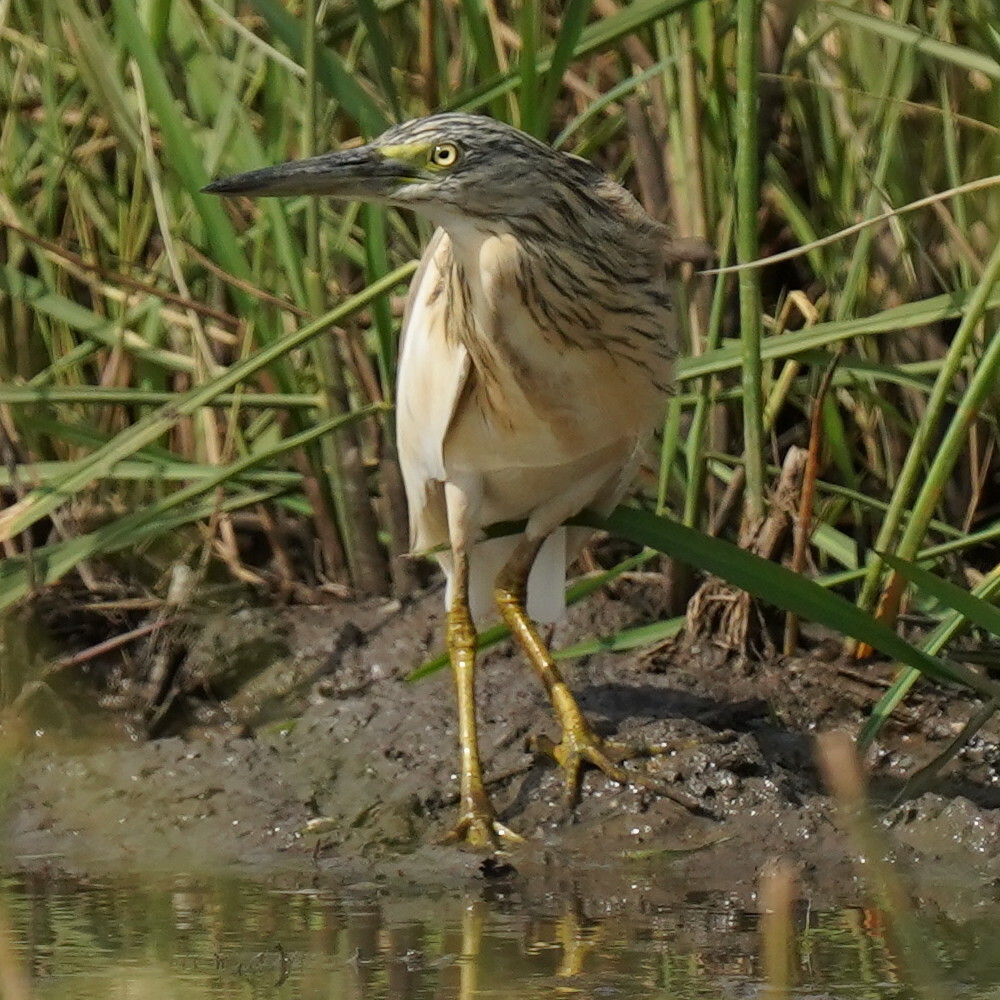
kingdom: Animalia
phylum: Chordata
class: Aves
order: Pelecaniformes
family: Ardeidae
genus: Ardeola
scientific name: Ardeola ralloides
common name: Squacco heron
